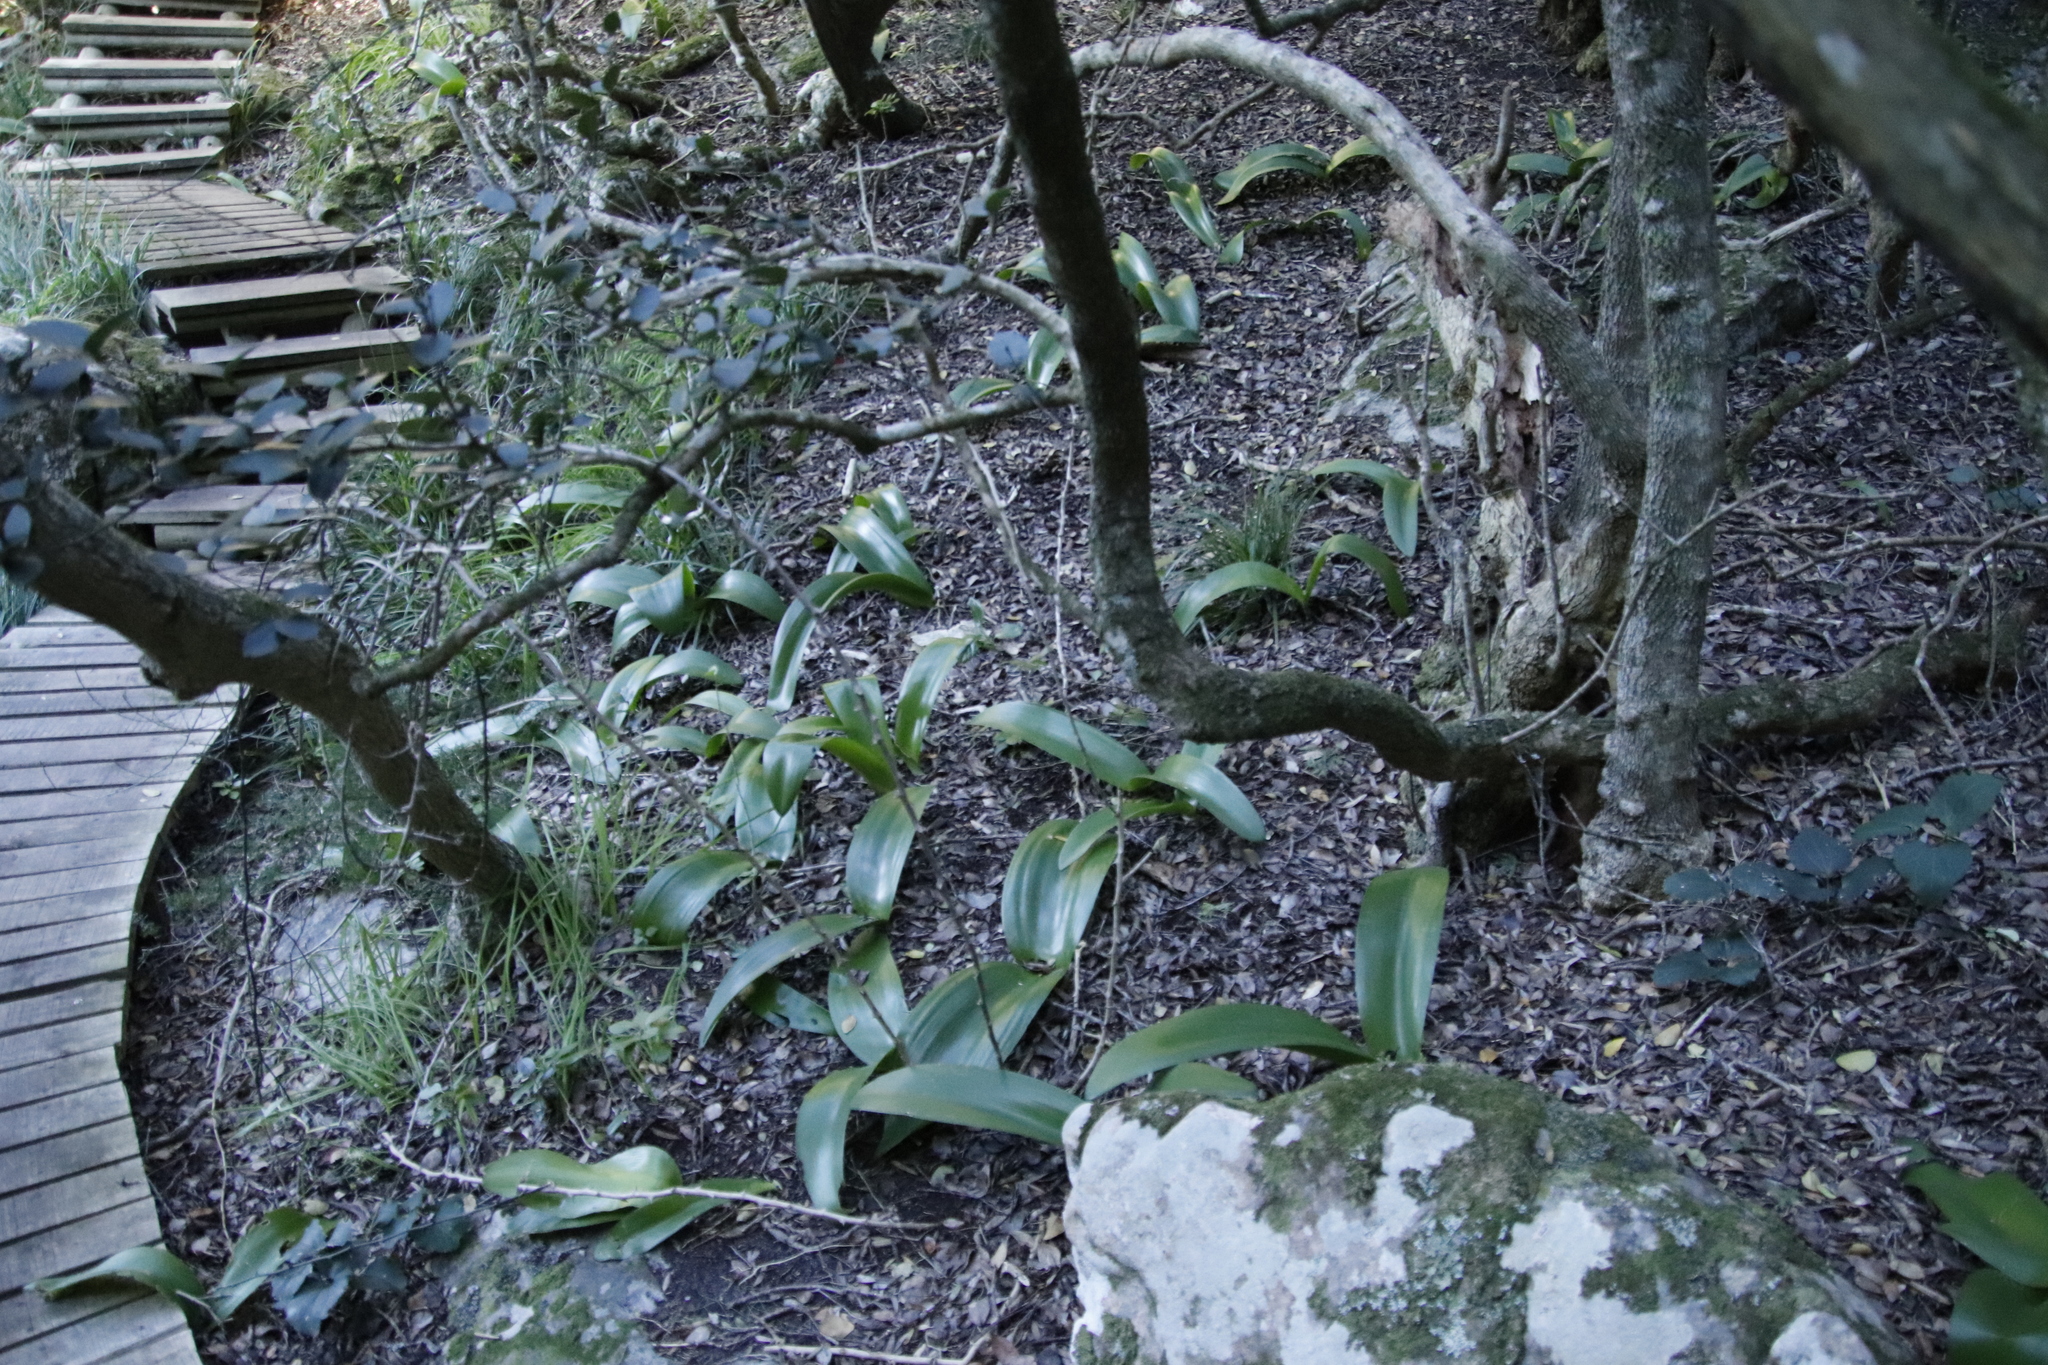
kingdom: Plantae
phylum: Tracheophyta
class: Liliopsida
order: Asparagales
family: Amaryllidaceae
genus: Haemanthus
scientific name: Haemanthus coccineus
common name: Cape-tulip
